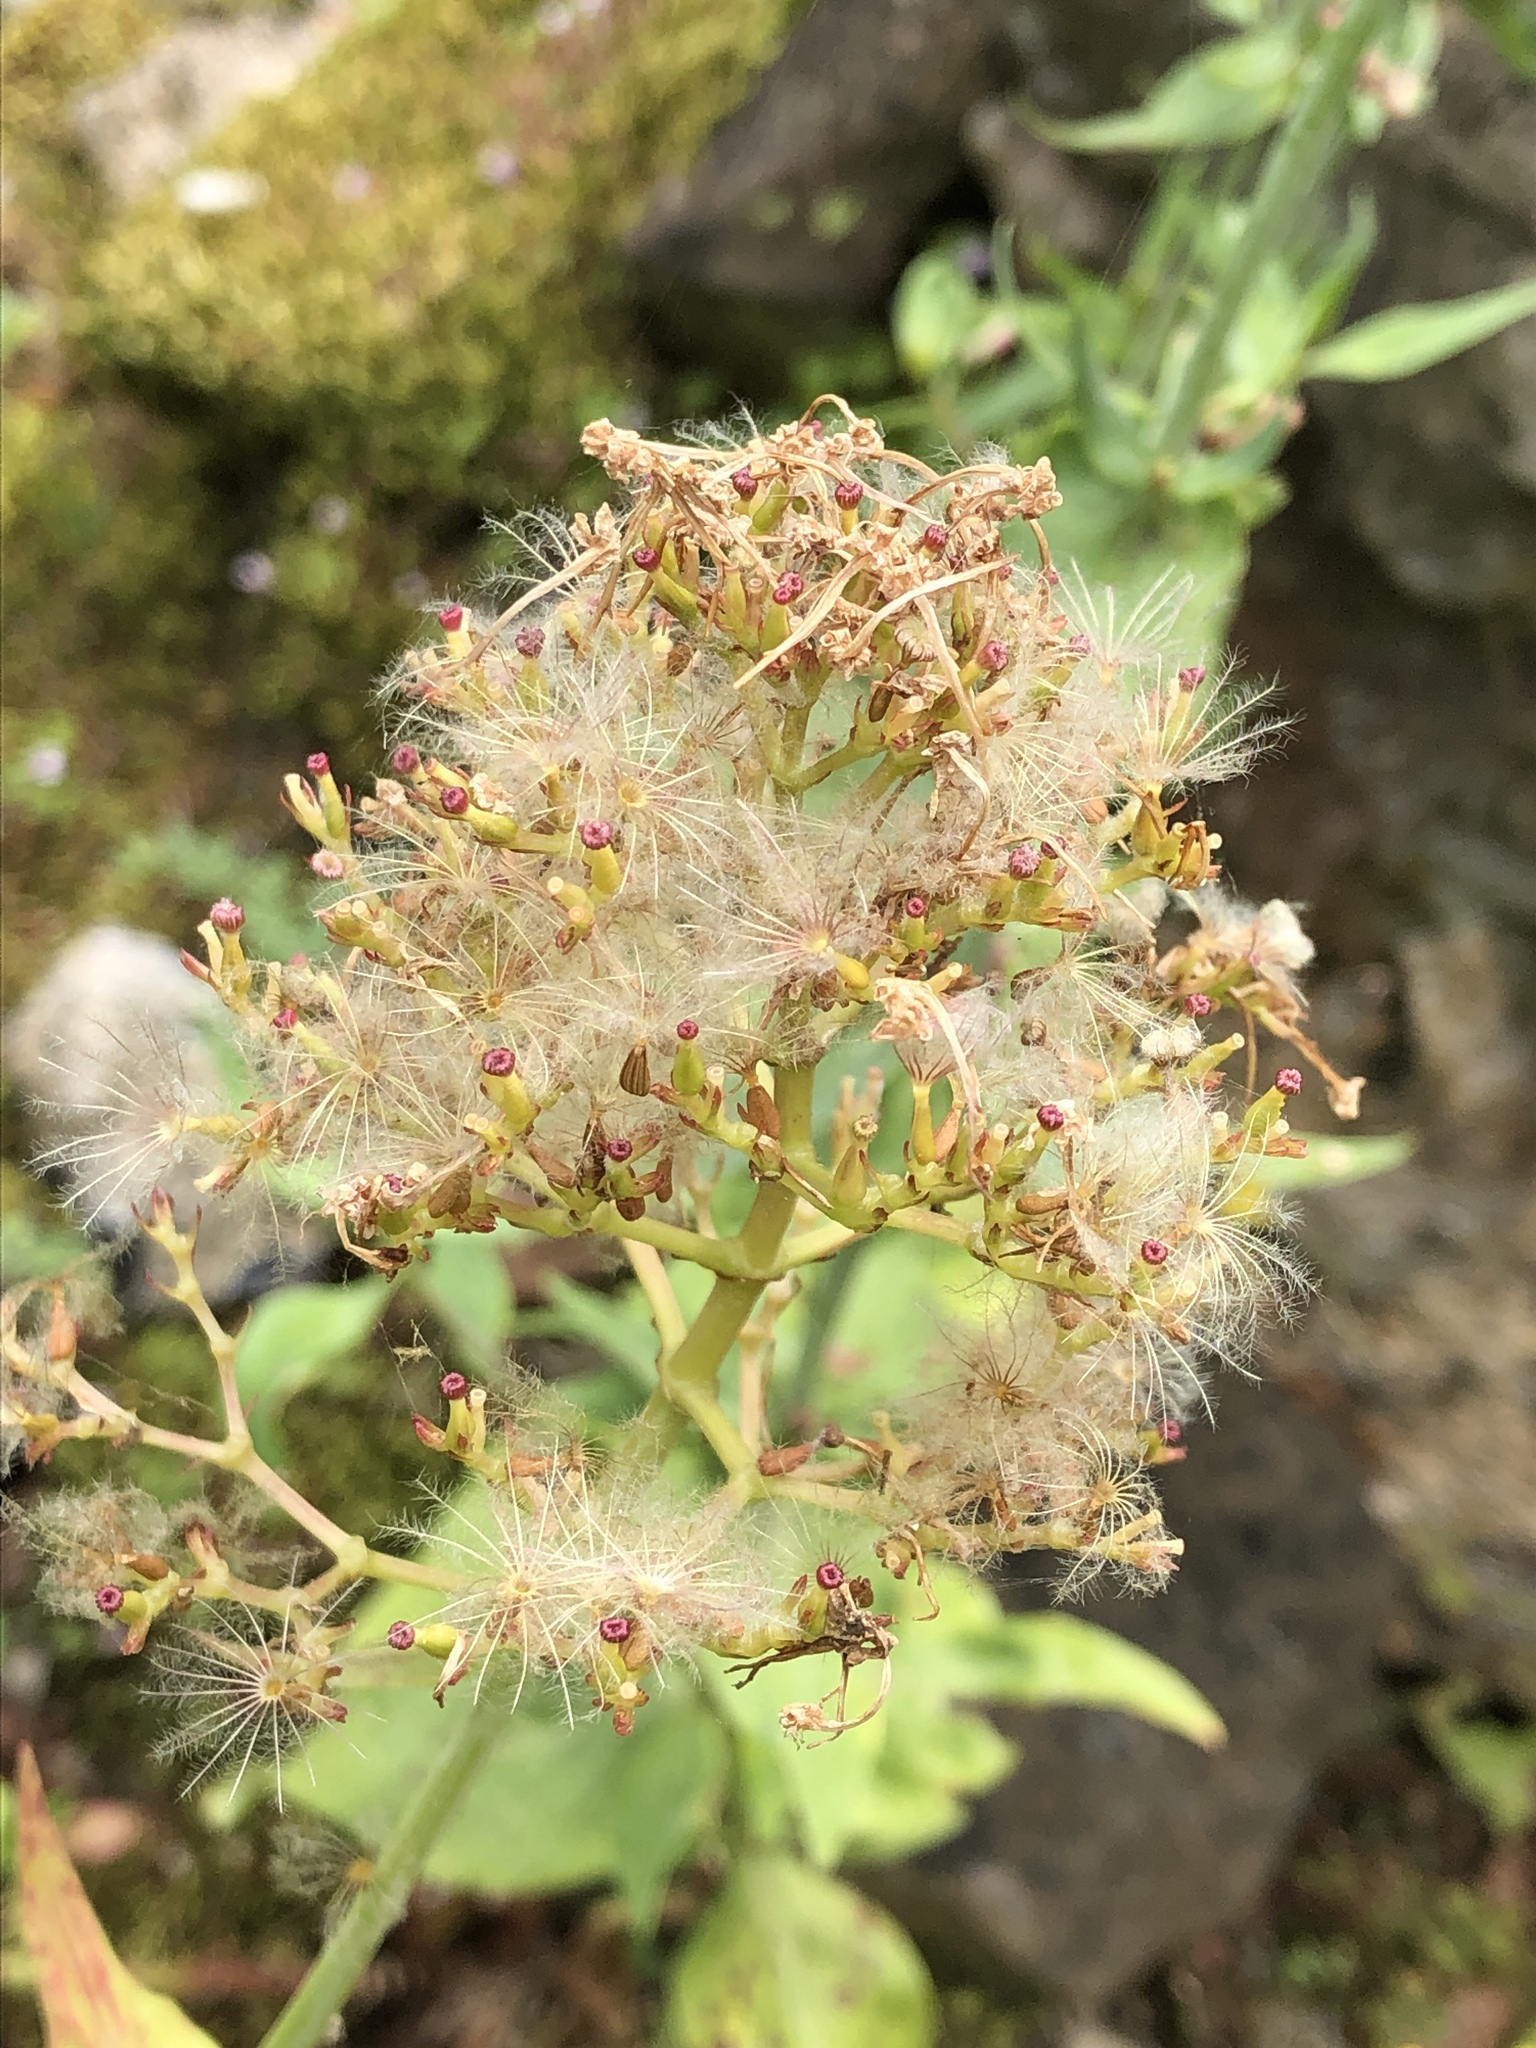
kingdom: Plantae
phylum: Tracheophyta
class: Magnoliopsida
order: Dipsacales
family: Caprifoliaceae
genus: Centranthus
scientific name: Centranthus ruber
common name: Red valerian
